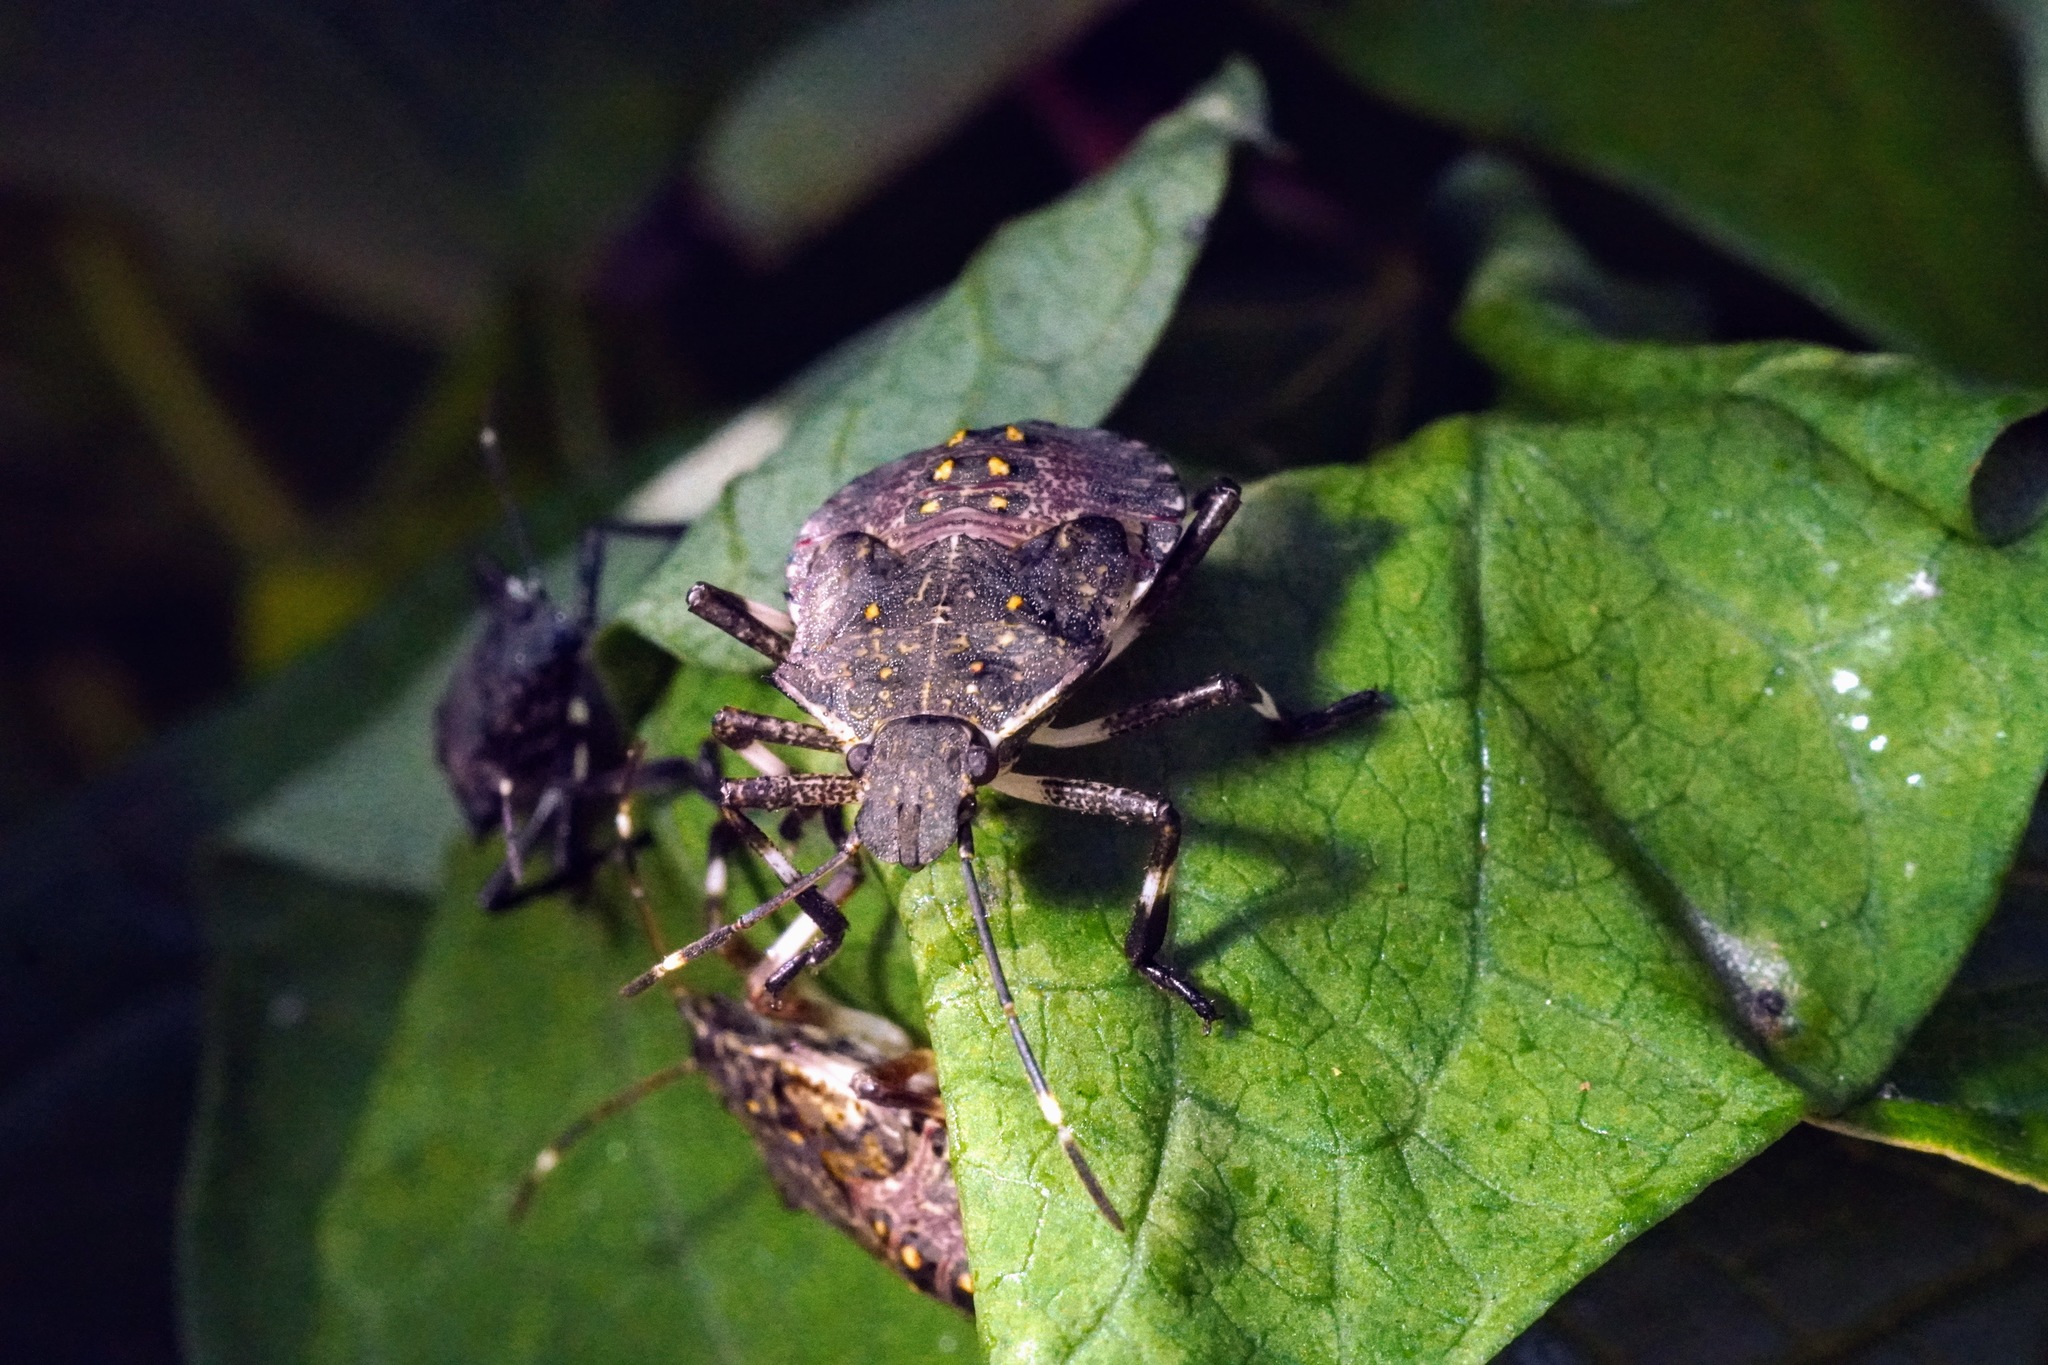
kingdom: Animalia
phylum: Arthropoda
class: Insecta
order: Hemiptera
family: Pentatomidae
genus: Halyomorpha
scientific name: Halyomorpha halys
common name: Brown marmorated stink bug
